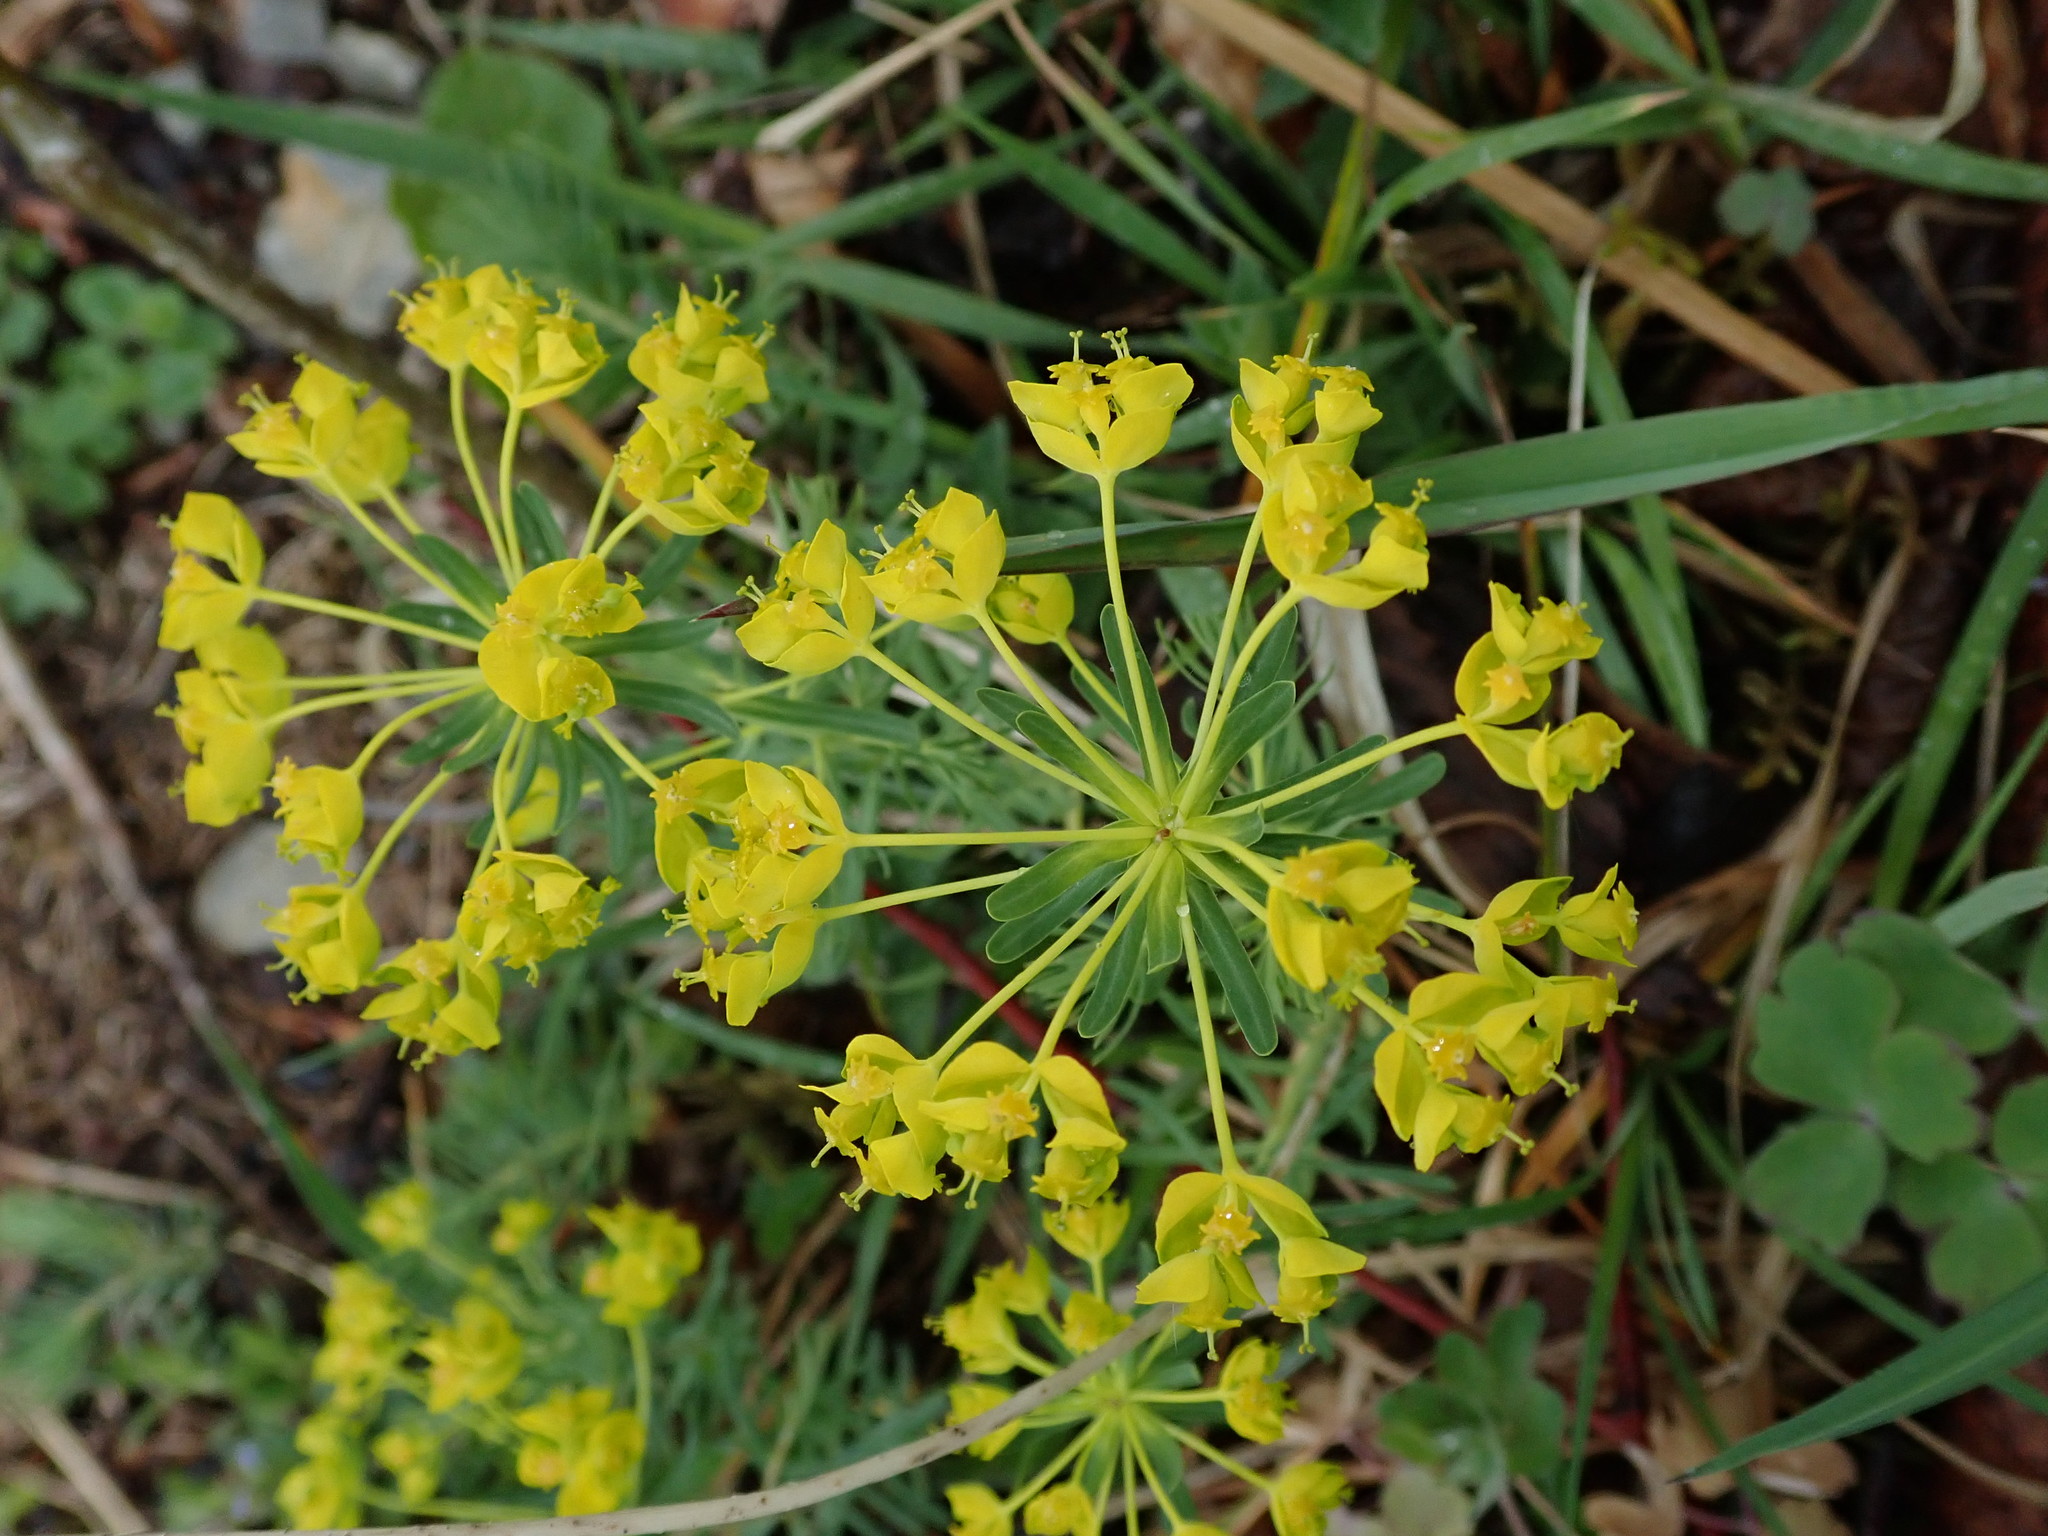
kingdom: Plantae
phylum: Tracheophyta
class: Magnoliopsida
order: Malpighiales
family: Euphorbiaceae
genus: Euphorbia
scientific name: Euphorbia cyparissias
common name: Cypress spurge
